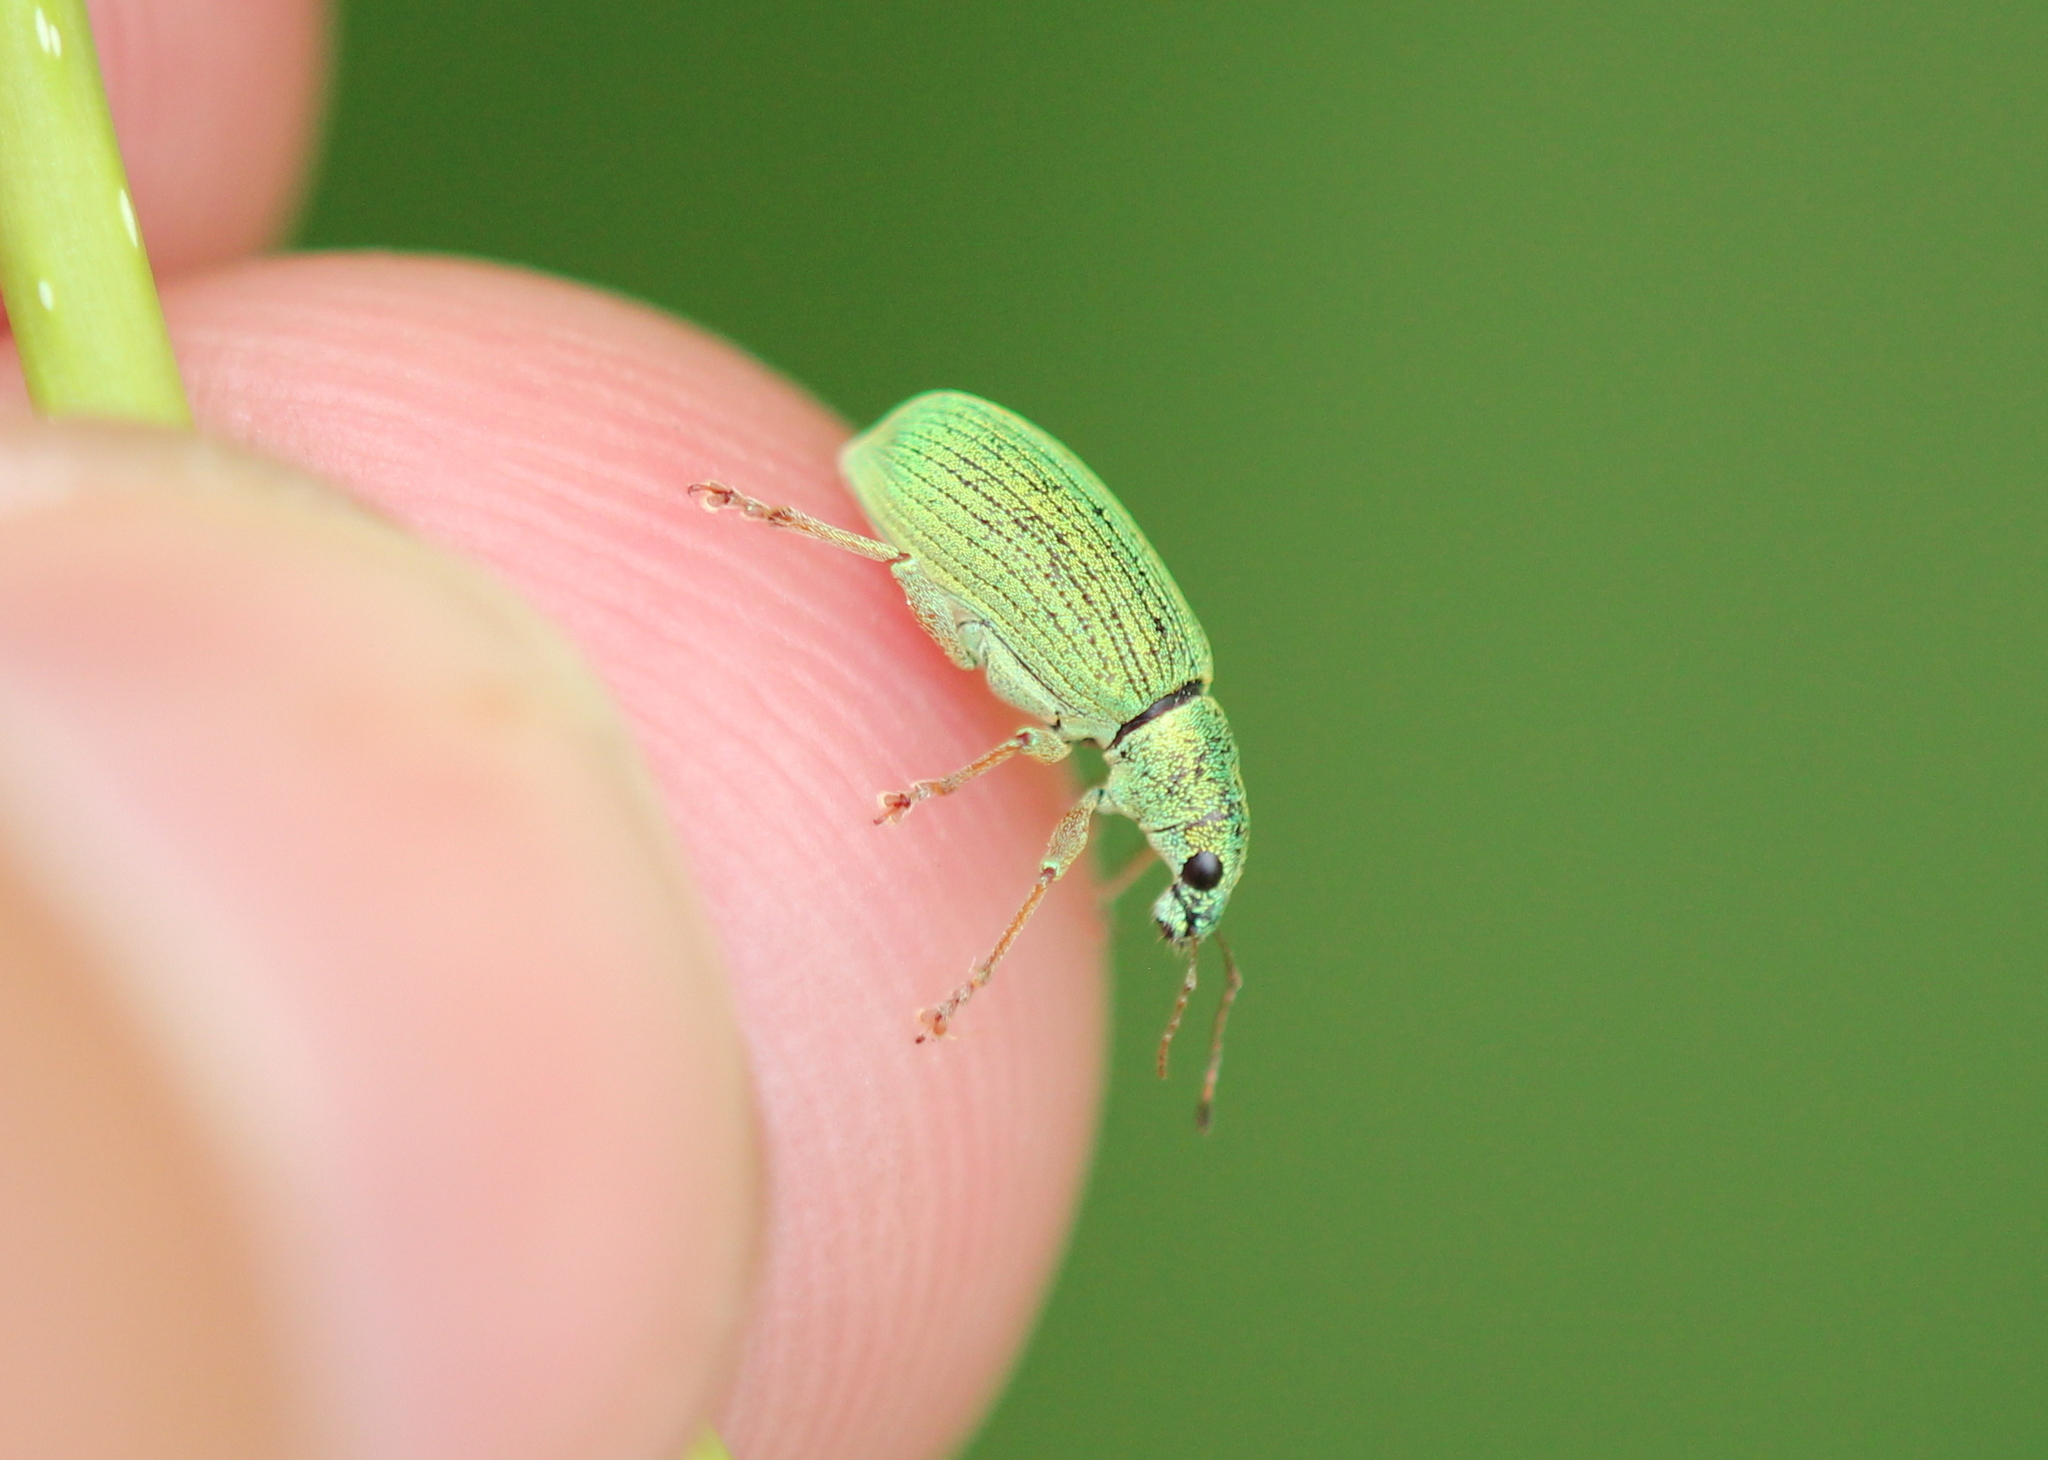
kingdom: Animalia
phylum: Arthropoda
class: Insecta
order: Coleoptera
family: Curculionidae
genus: Polydrusus
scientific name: Polydrusus formosus
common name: Weevil
